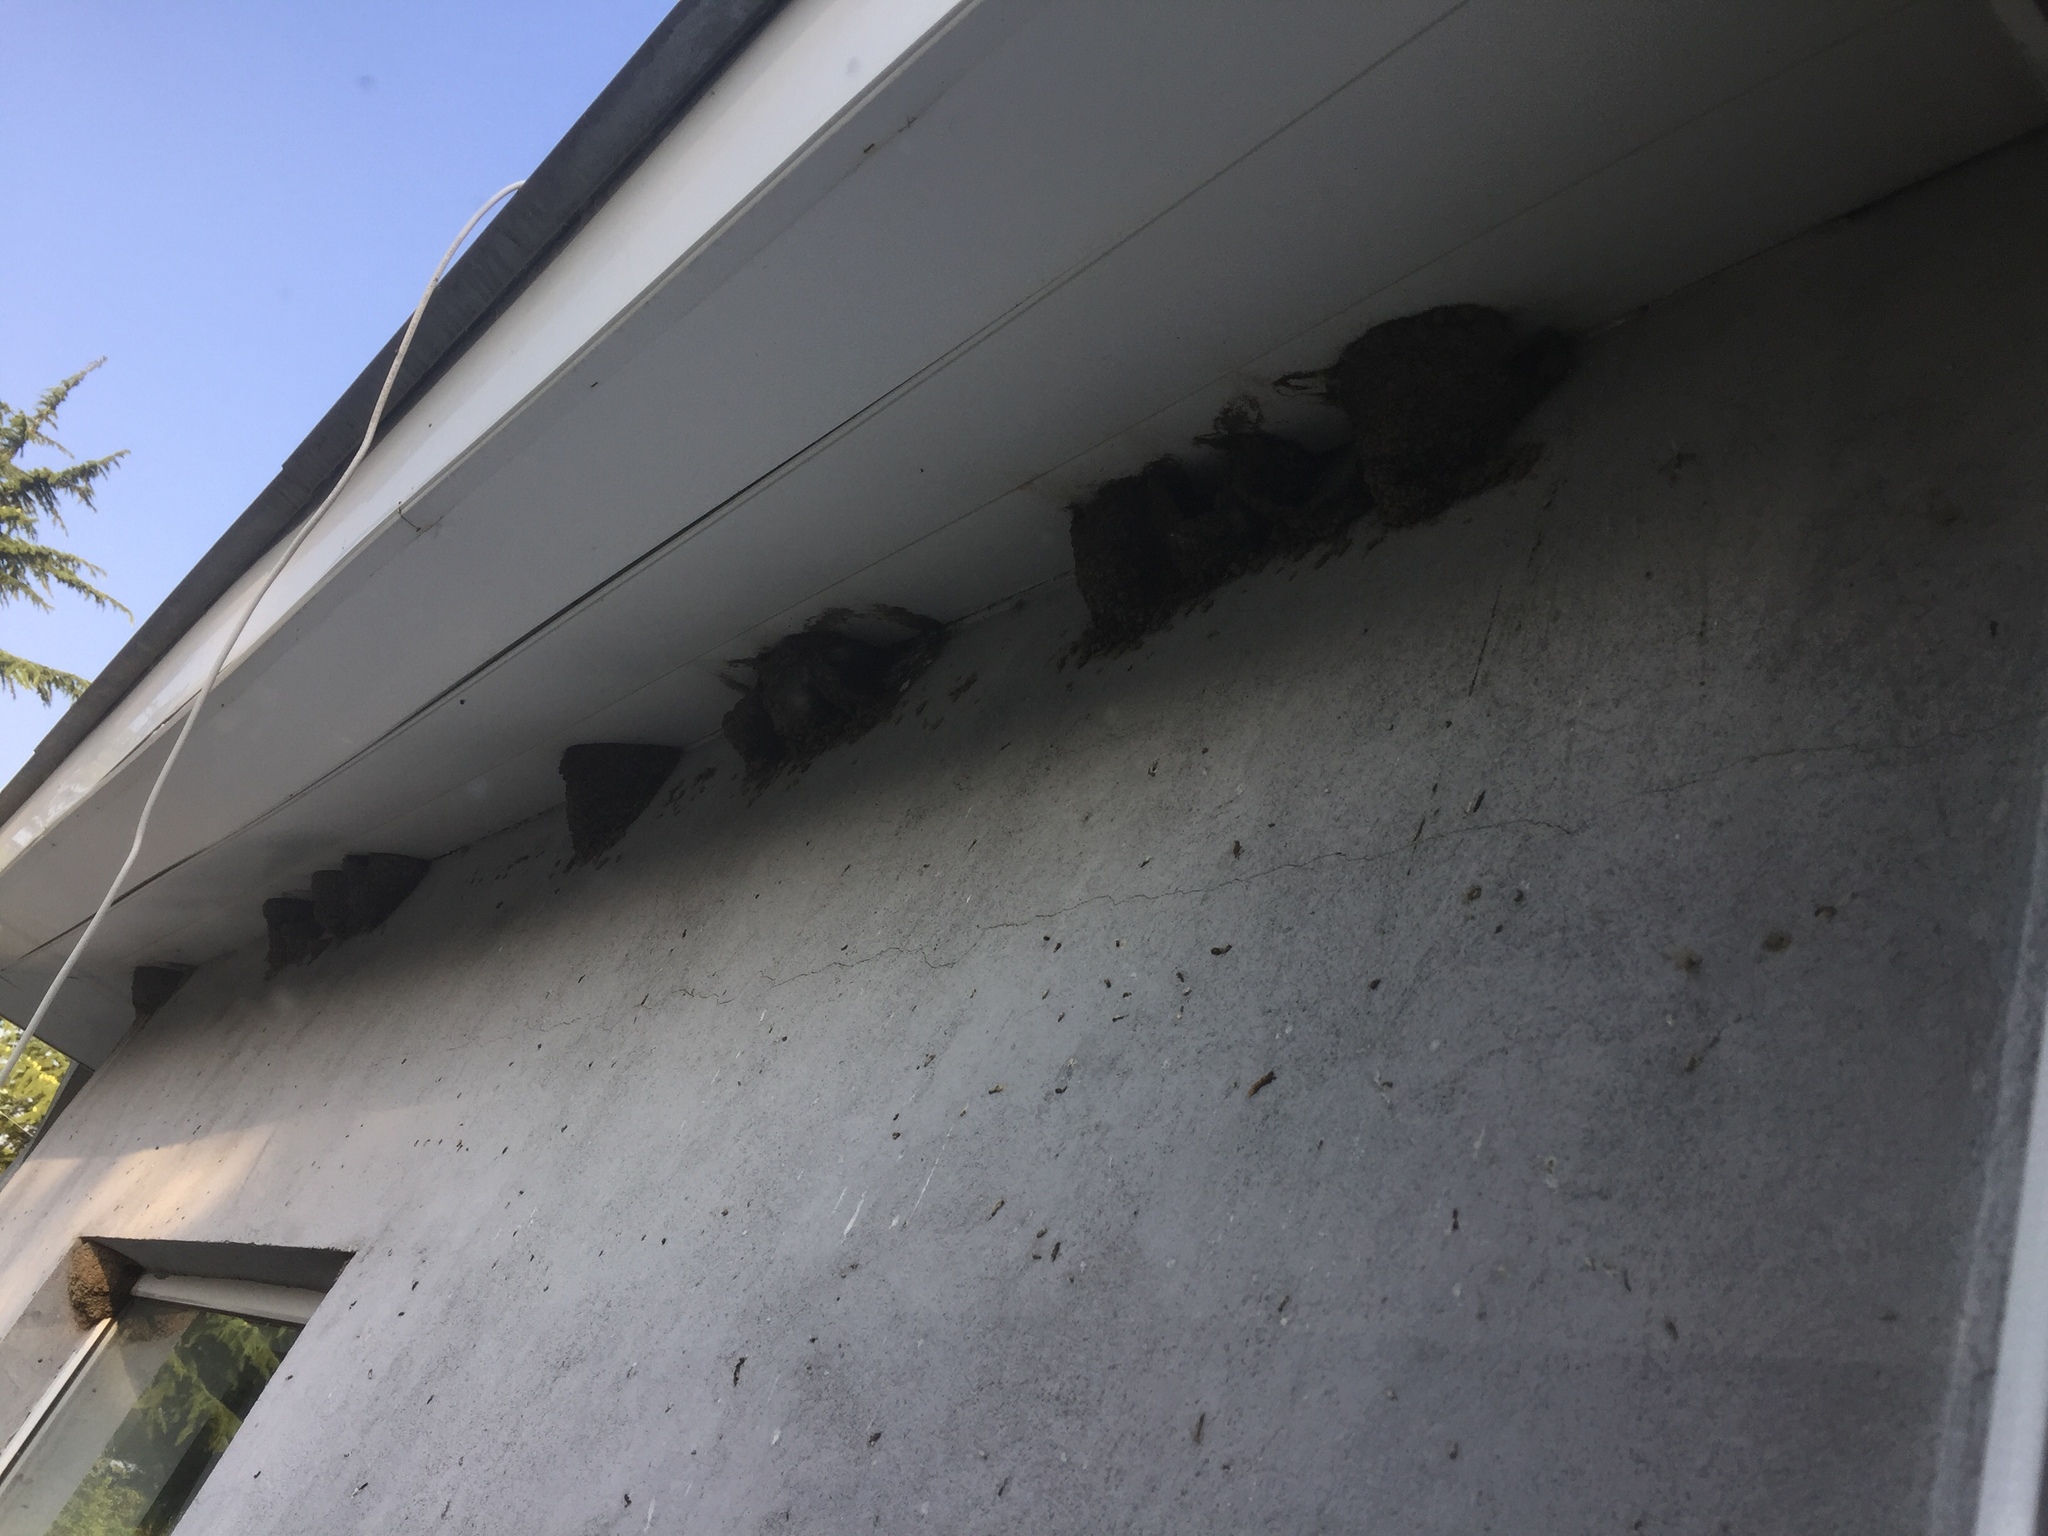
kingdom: Animalia
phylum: Chordata
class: Aves
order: Passeriformes
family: Hirundinidae
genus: Delichon
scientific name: Delichon urbicum
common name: Common house martin
